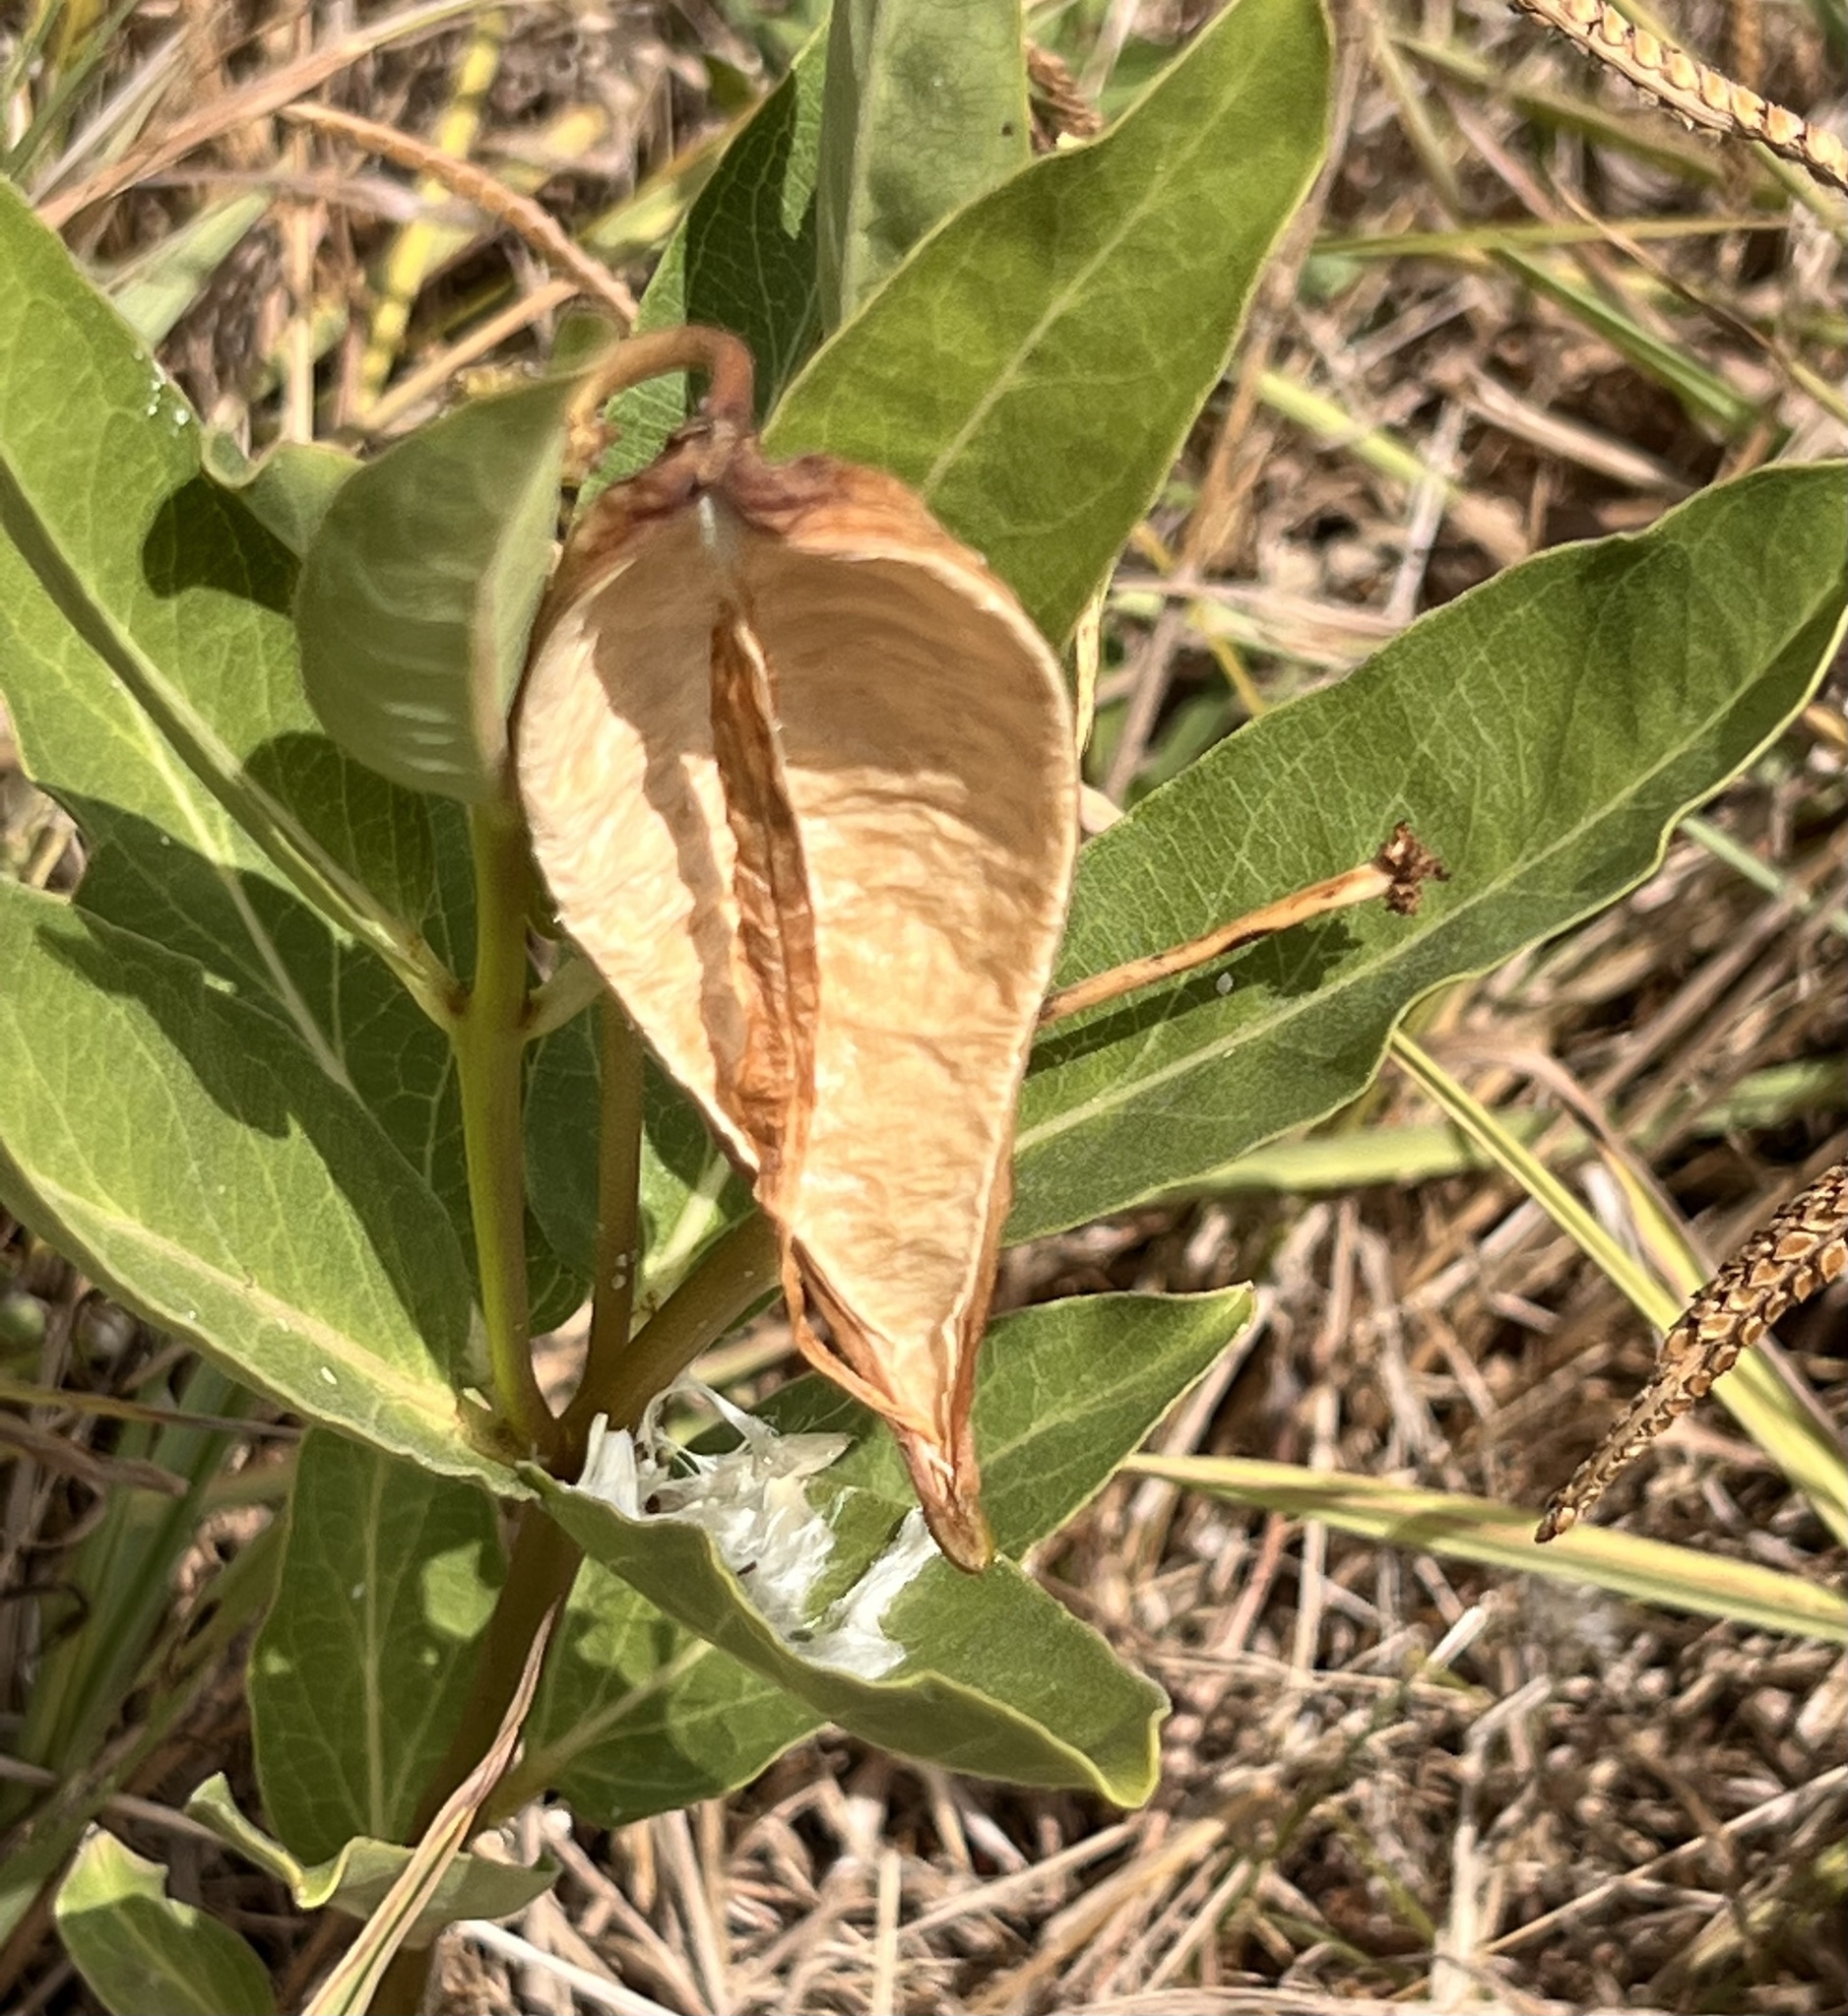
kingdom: Plantae
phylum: Tracheophyta
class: Magnoliopsida
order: Gentianales
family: Apocynaceae
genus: Asclepias
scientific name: Asclepias viridis
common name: Antelope-horns
